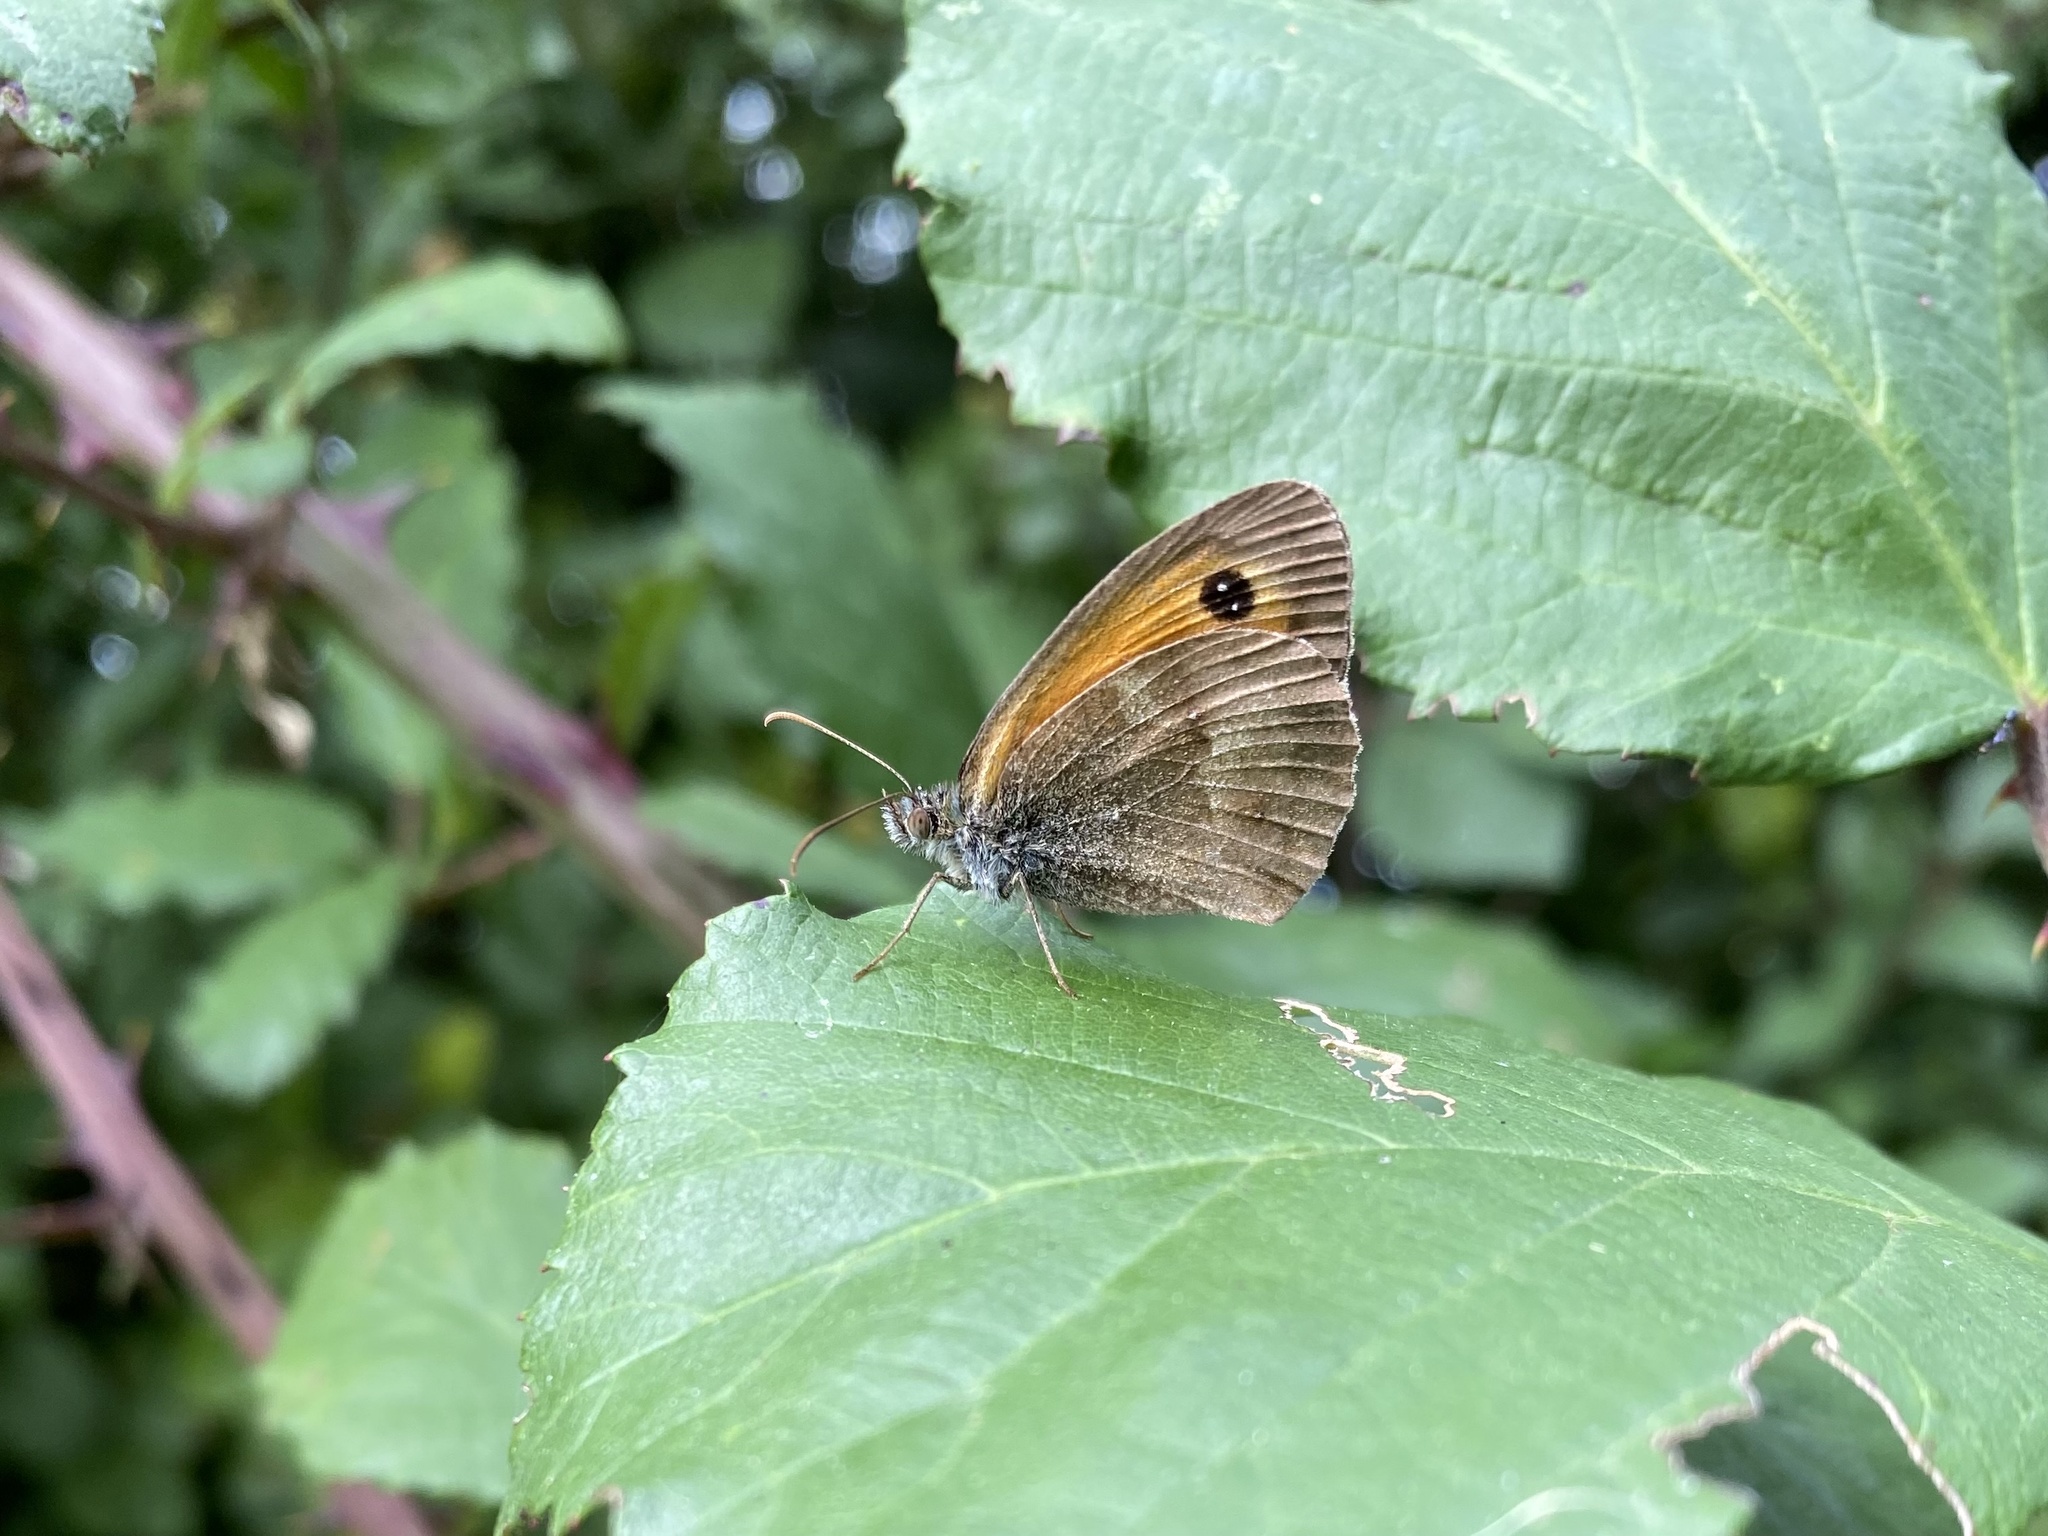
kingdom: Animalia
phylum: Arthropoda
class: Insecta
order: Lepidoptera
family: Nymphalidae
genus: Pyronia
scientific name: Pyronia tithonus
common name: Gatekeeper
